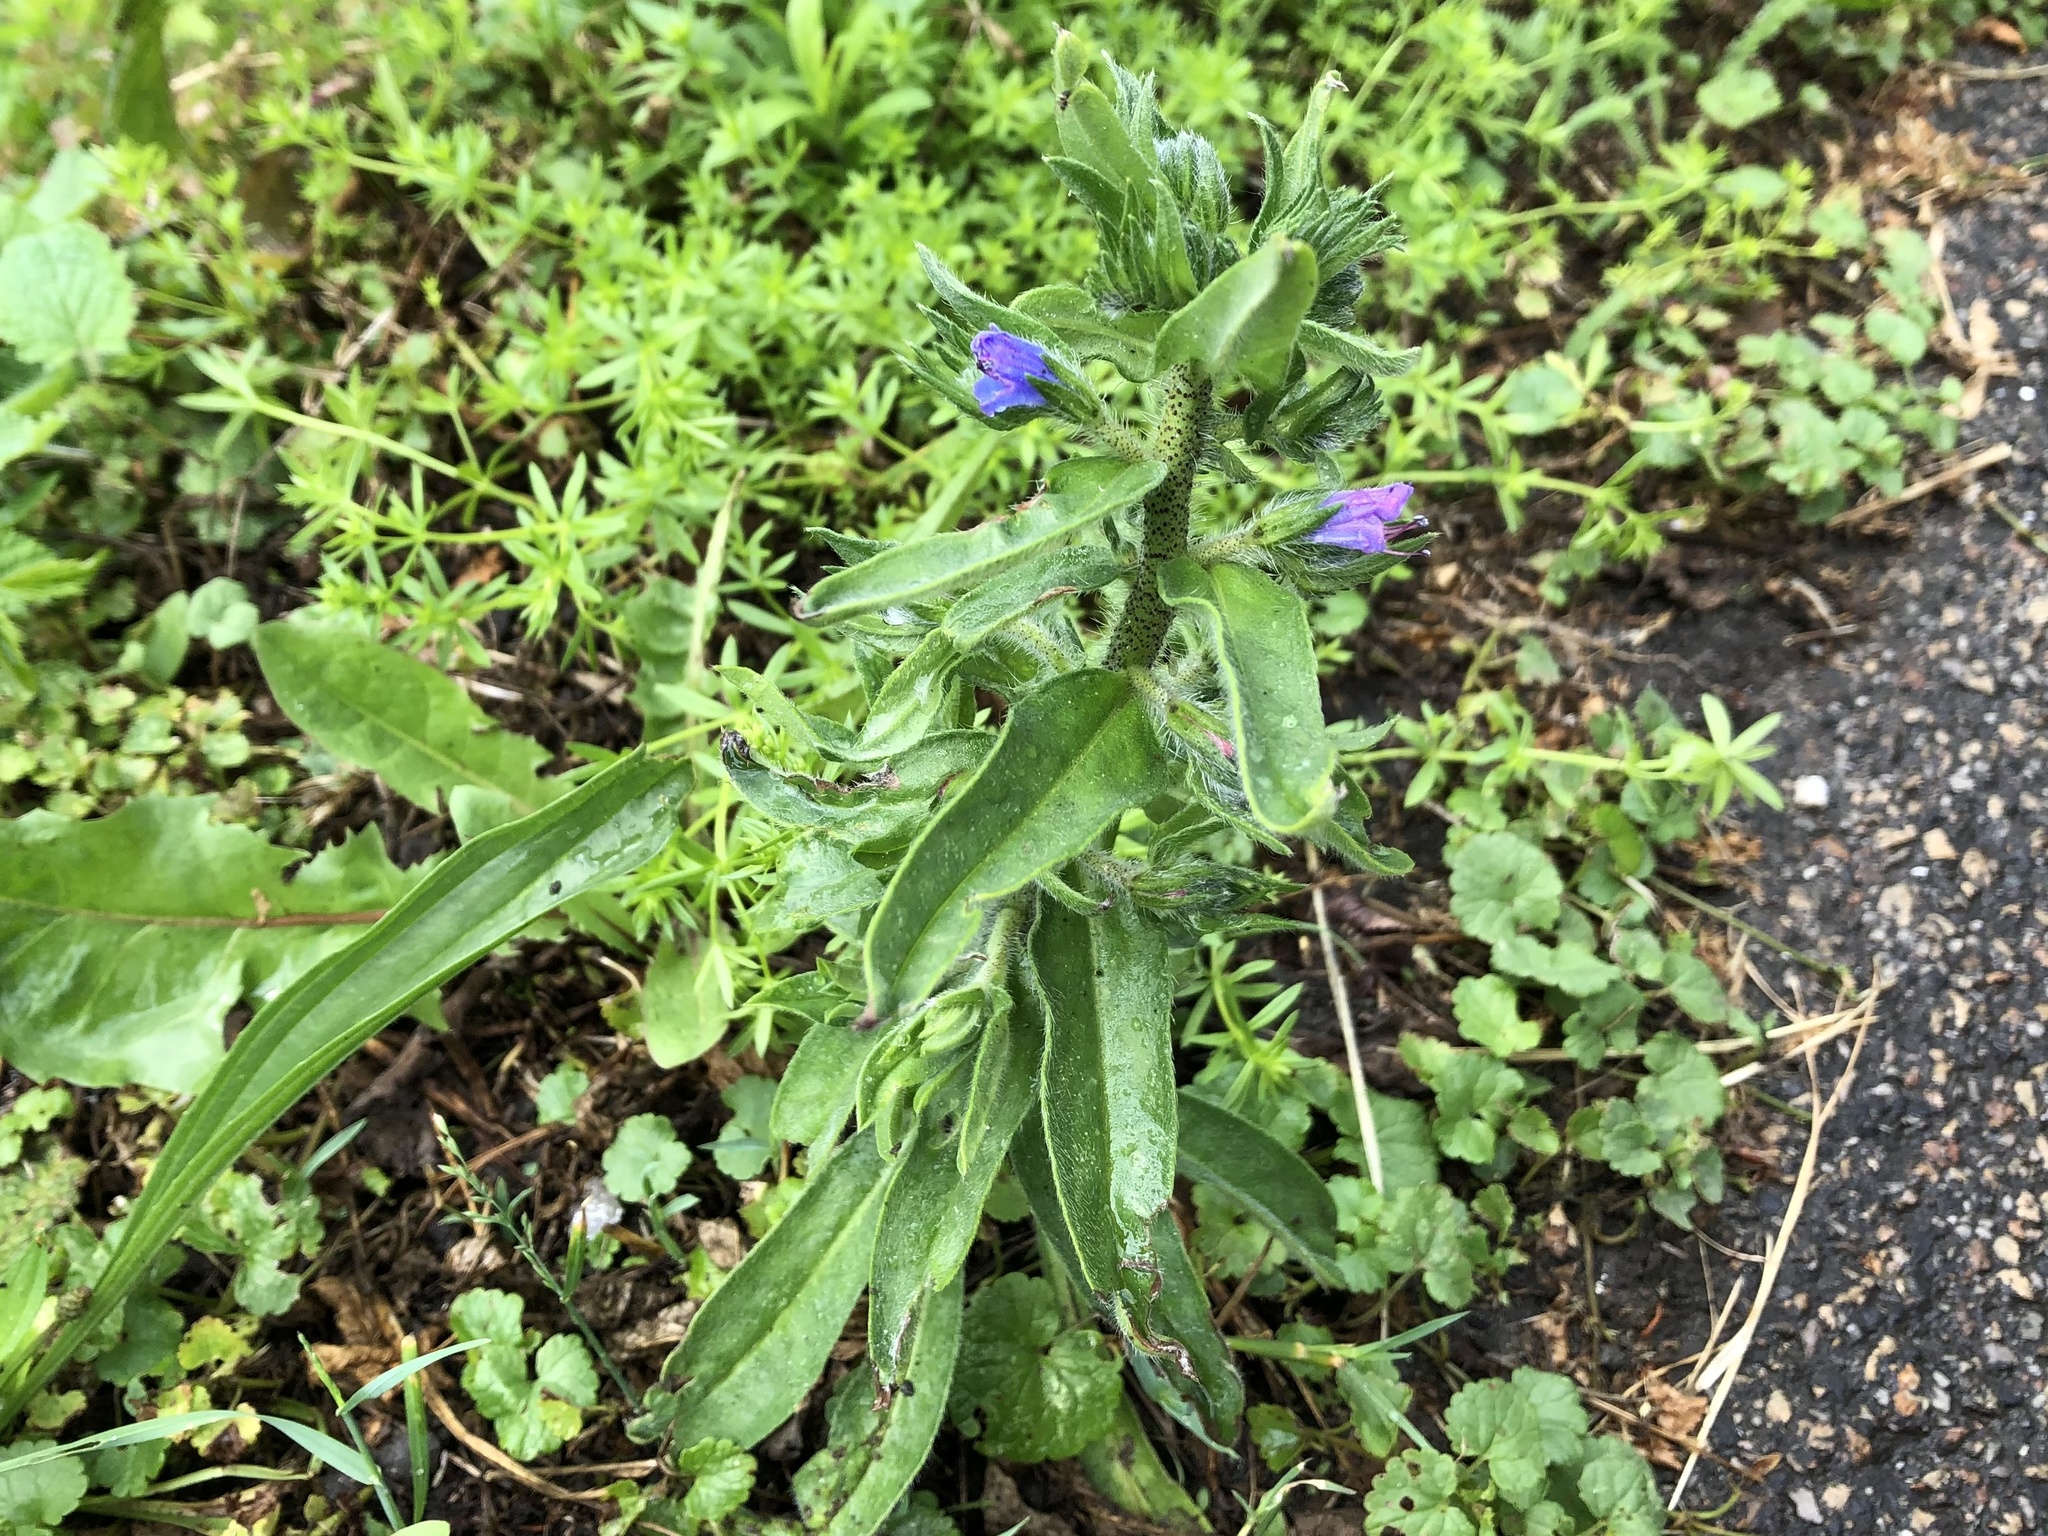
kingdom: Plantae
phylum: Tracheophyta
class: Magnoliopsida
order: Boraginales
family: Boraginaceae
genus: Echium
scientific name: Echium vulgare
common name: Common viper's bugloss
